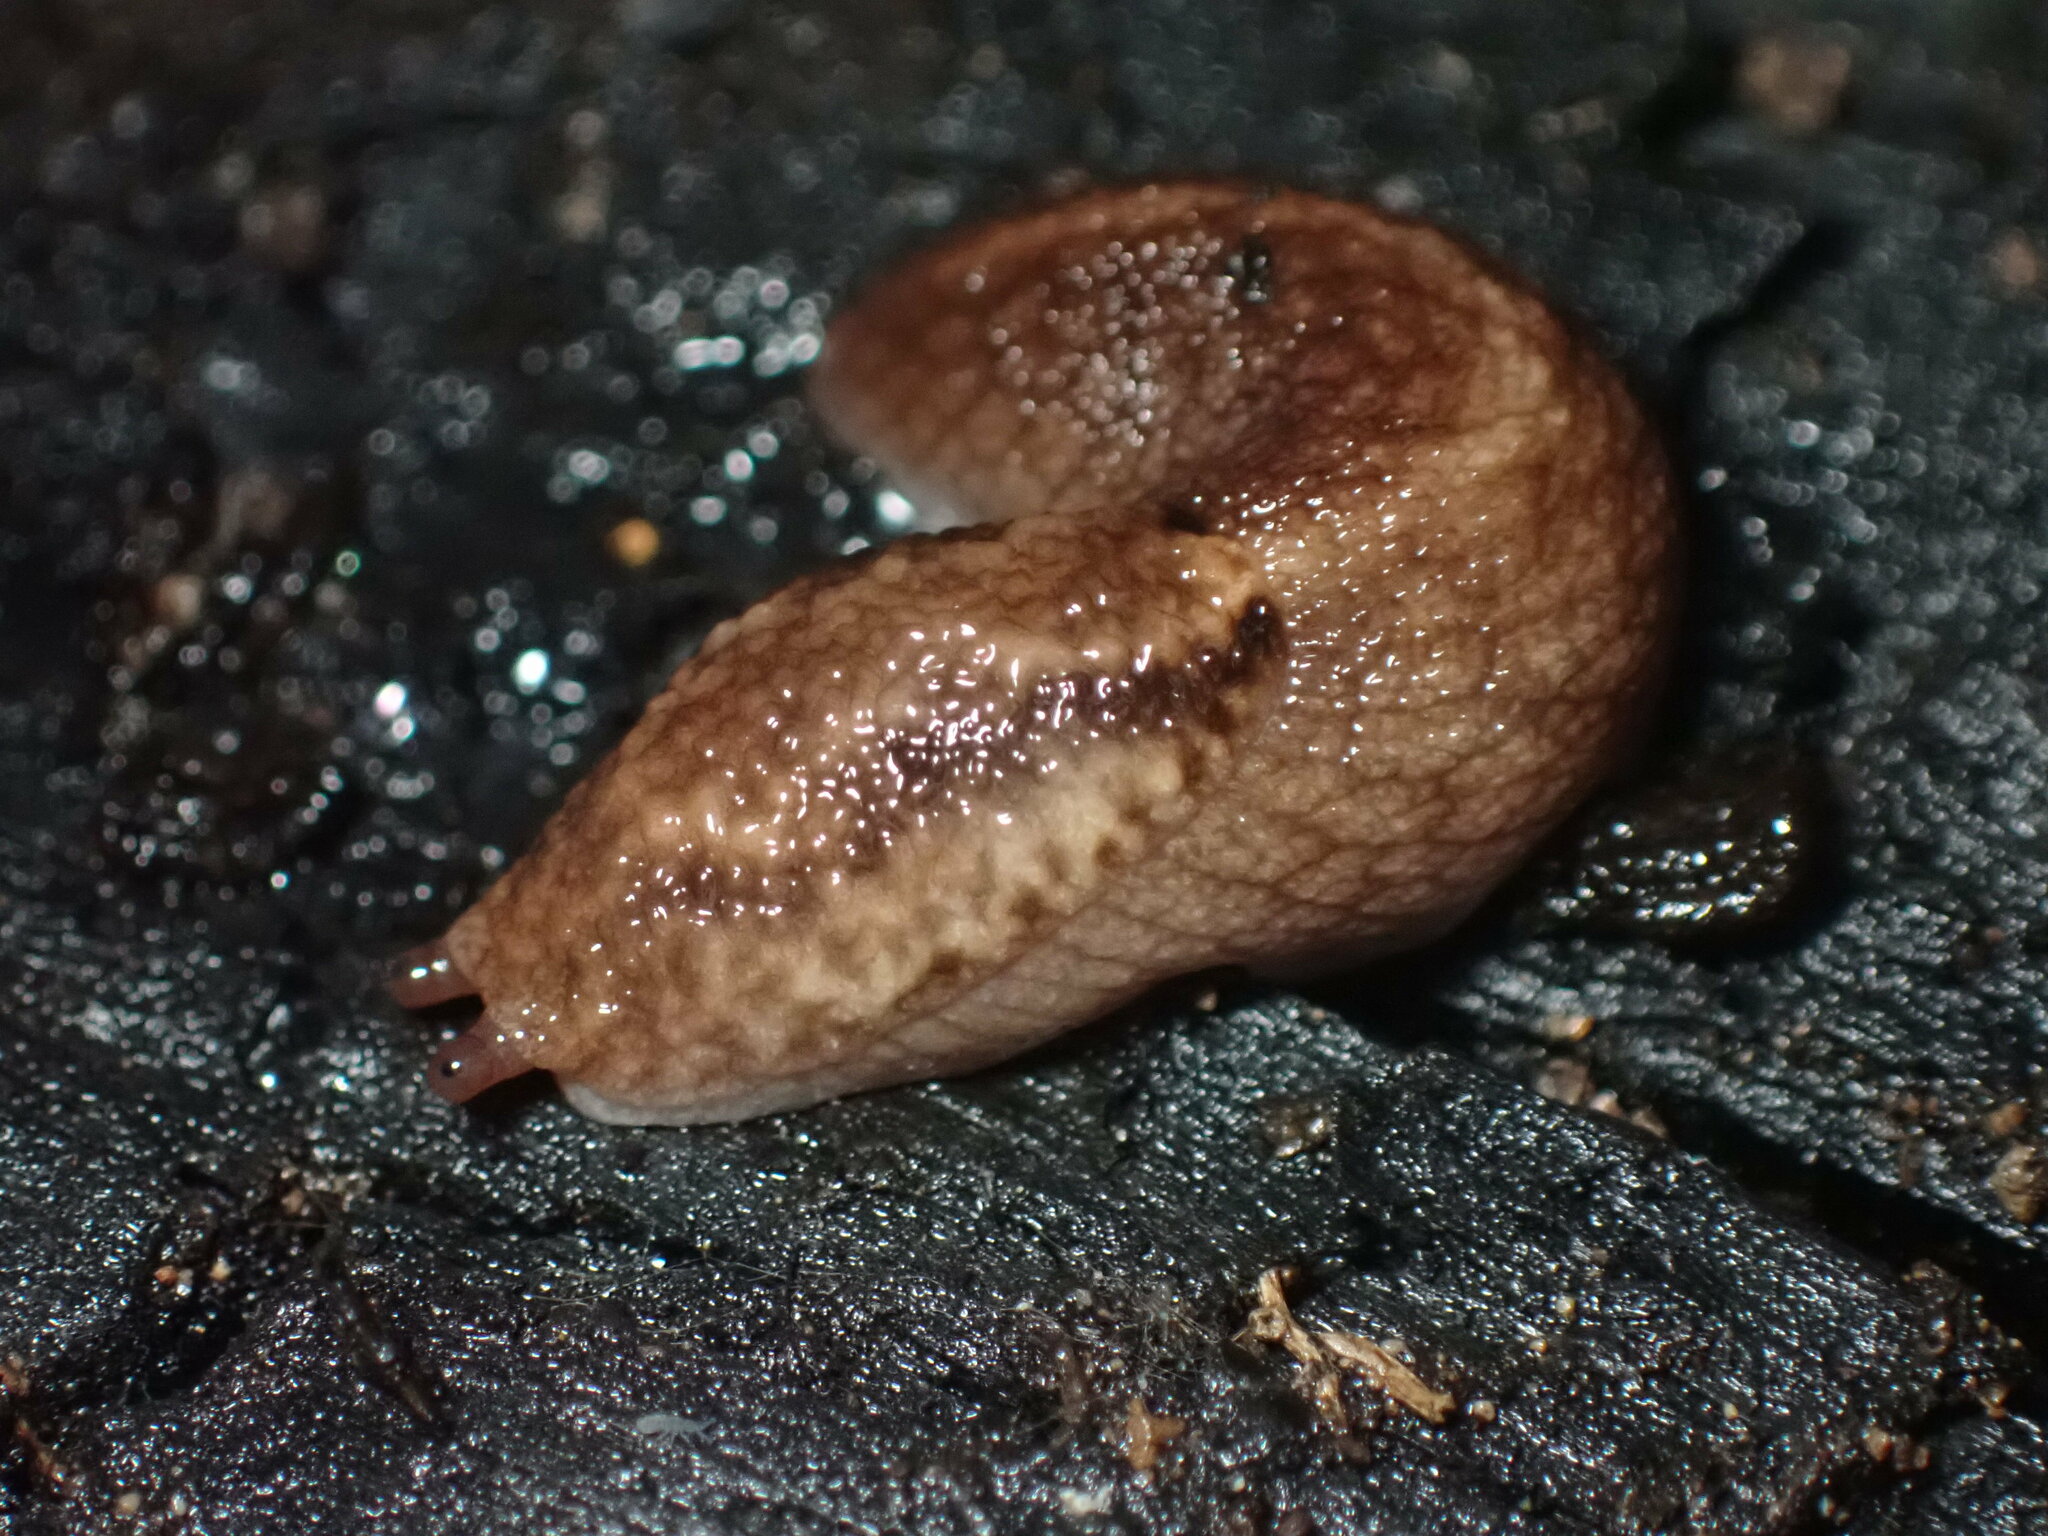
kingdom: Animalia
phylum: Mollusca
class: Gastropoda
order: Stylommatophora
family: Ariolimacidae
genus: Prophysaon
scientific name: Prophysaon andersonii
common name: Reticulate taildropper
